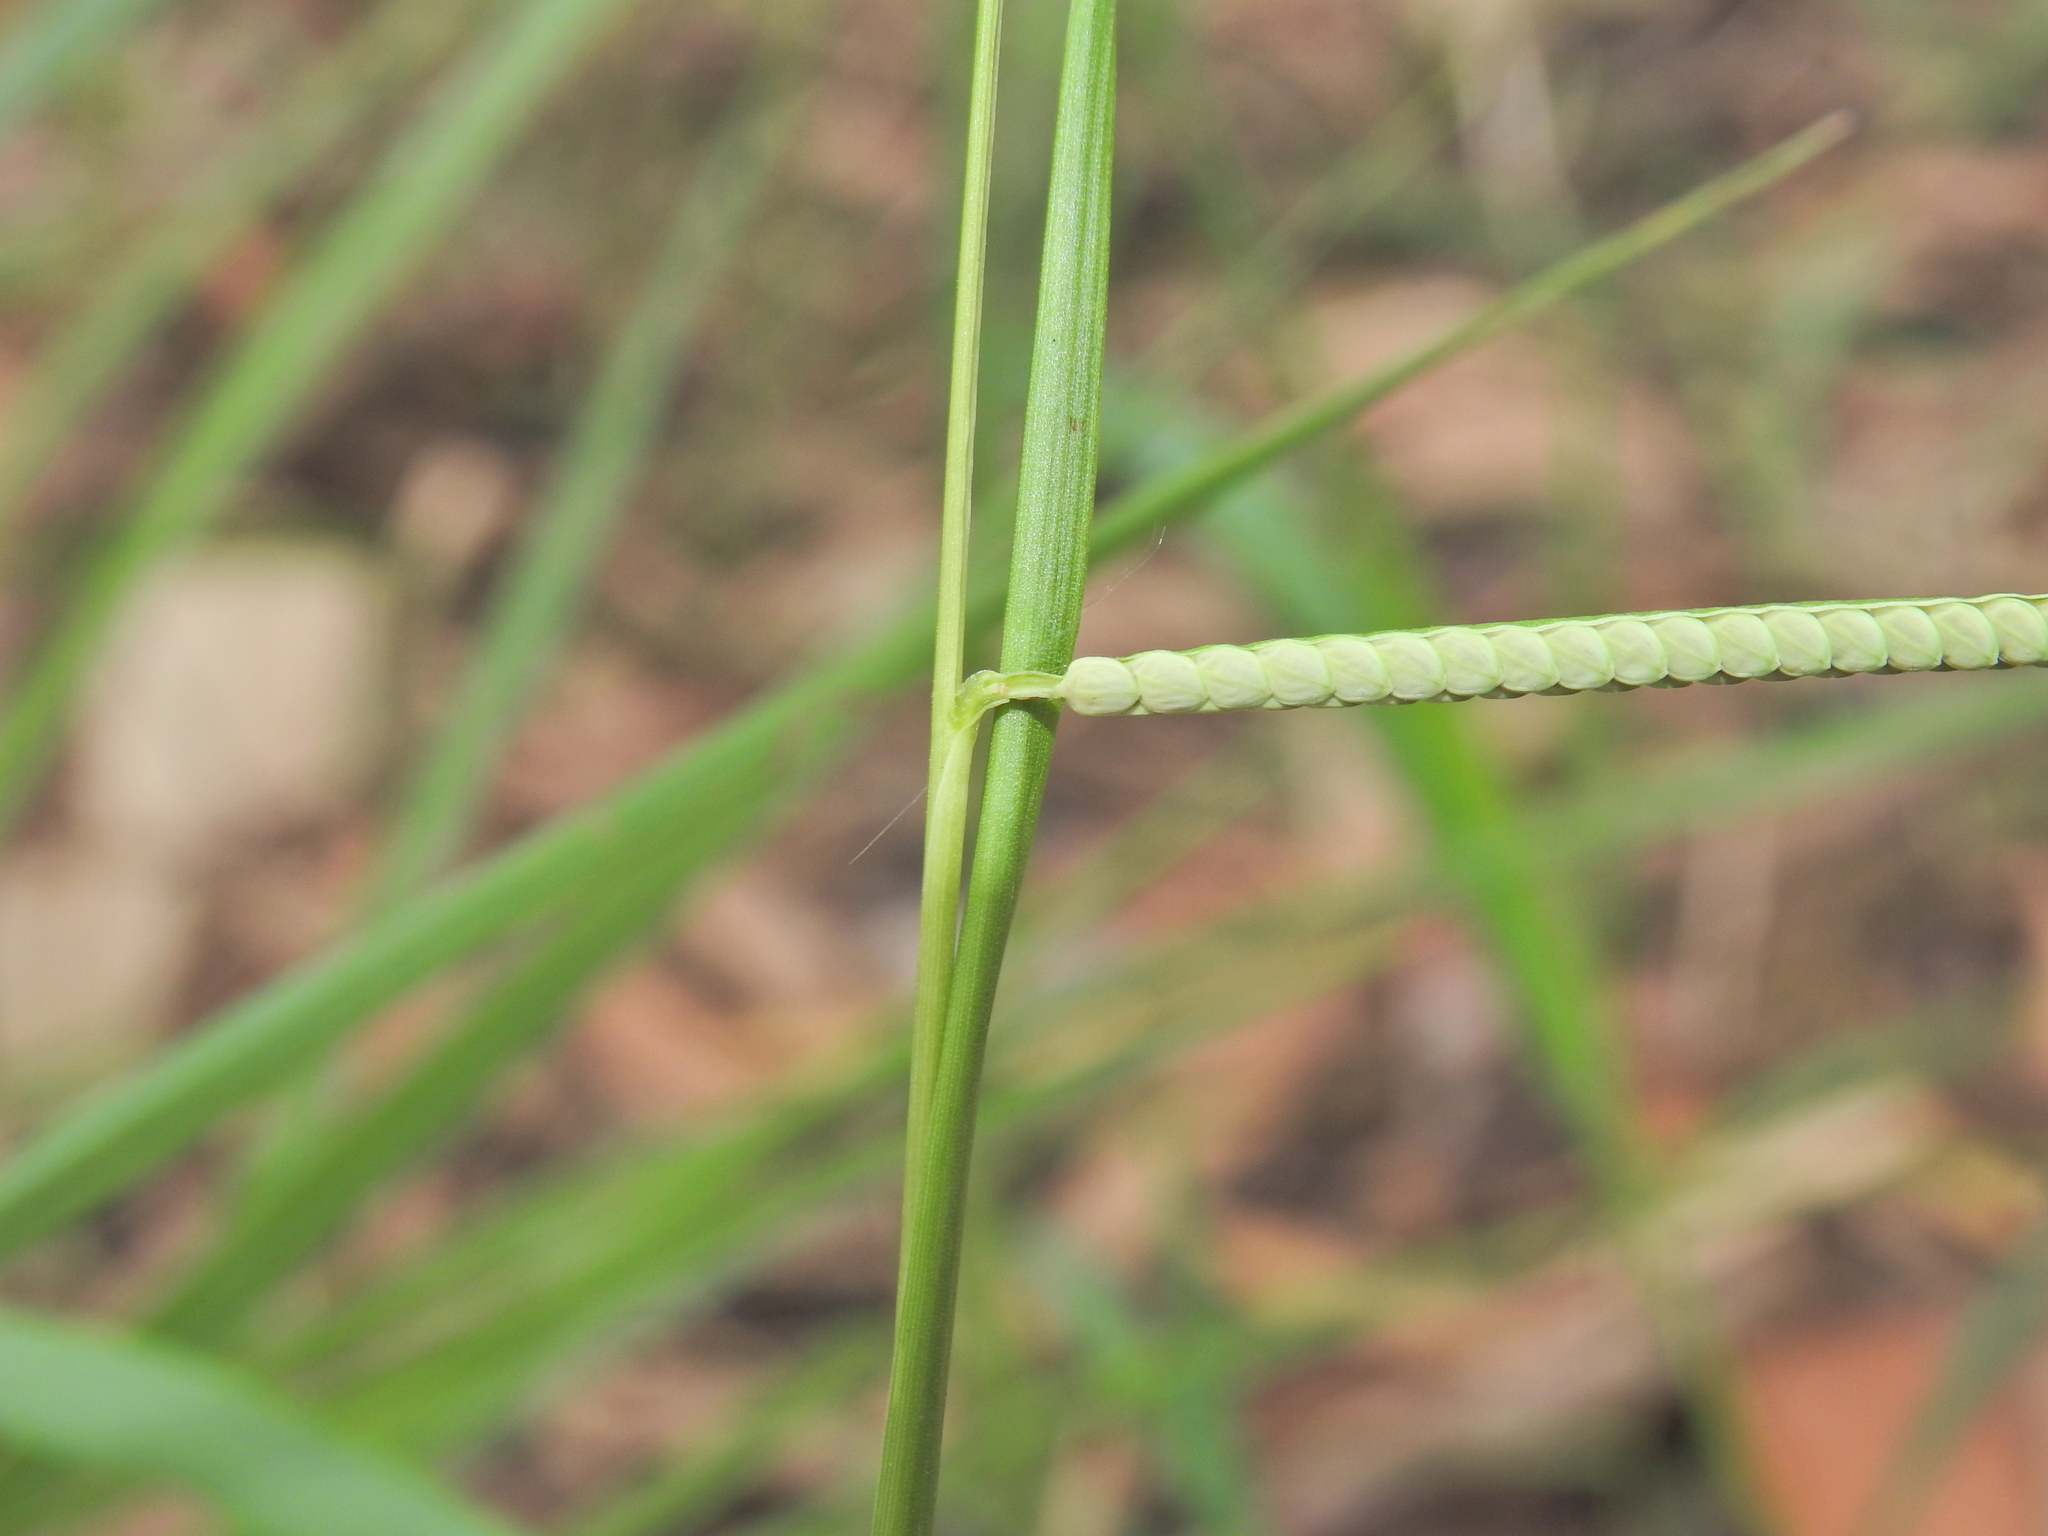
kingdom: Plantae
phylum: Tracheophyta
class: Liliopsida
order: Poales
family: Poaceae
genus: Paspalum
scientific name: Paspalum scrobiculatum
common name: Kodo millet
